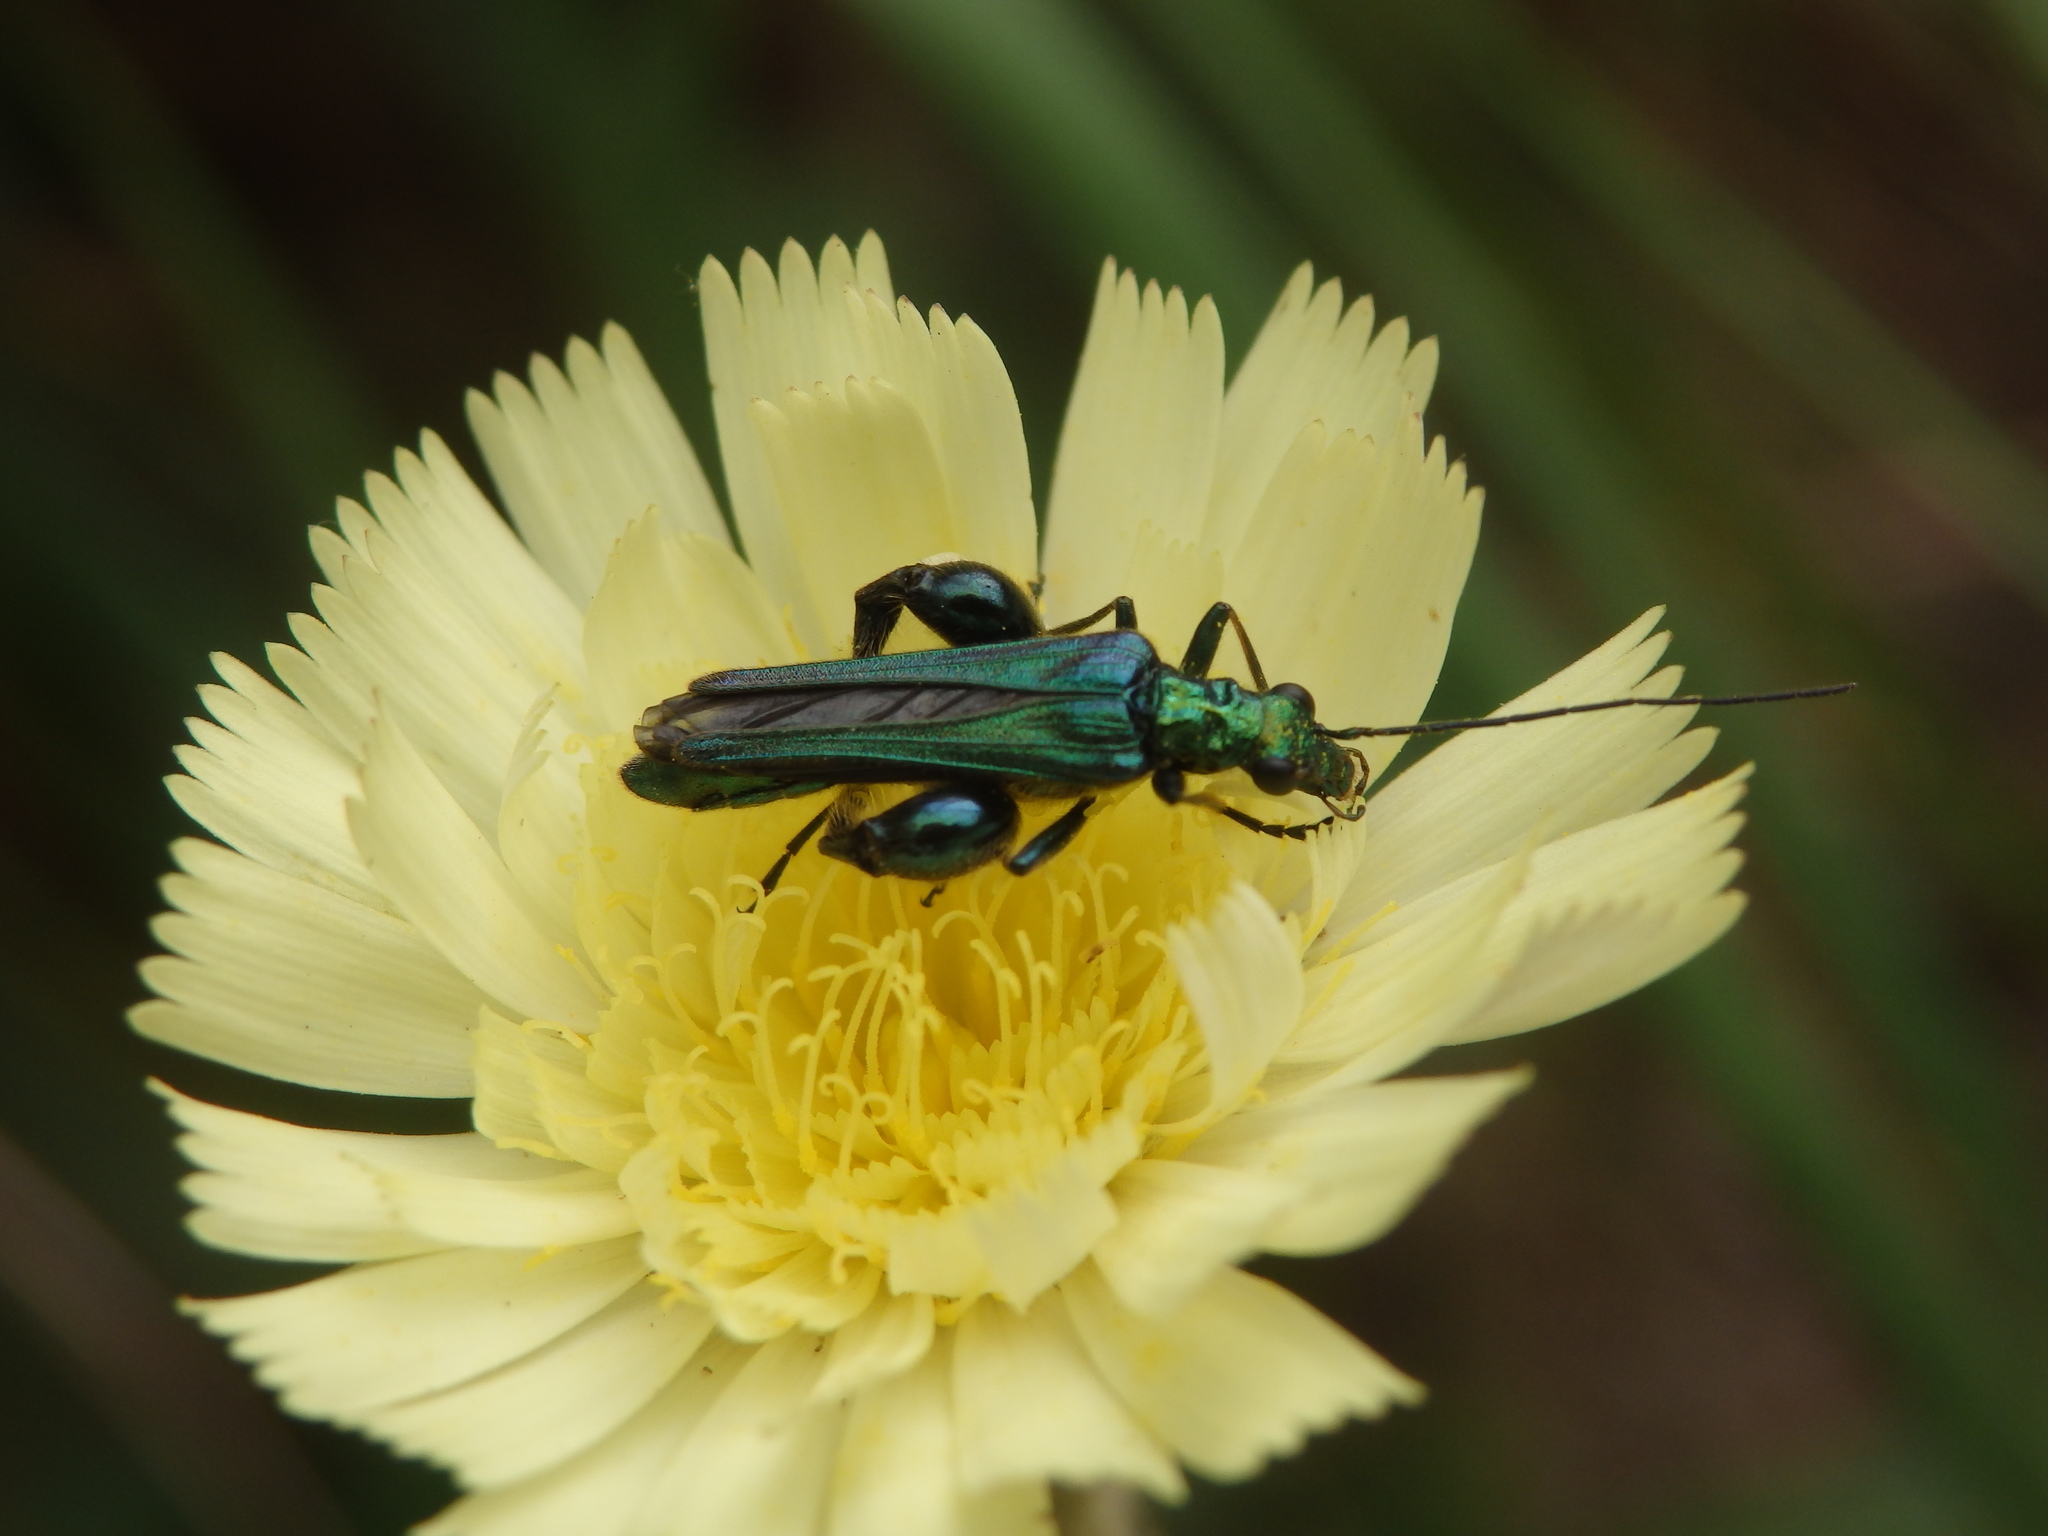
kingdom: Animalia
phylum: Arthropoda
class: Insecta
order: Coleoptera
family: Oedemeridae
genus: Oedemera
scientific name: Oedemera nobilis
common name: Swollen-thighed beetle
